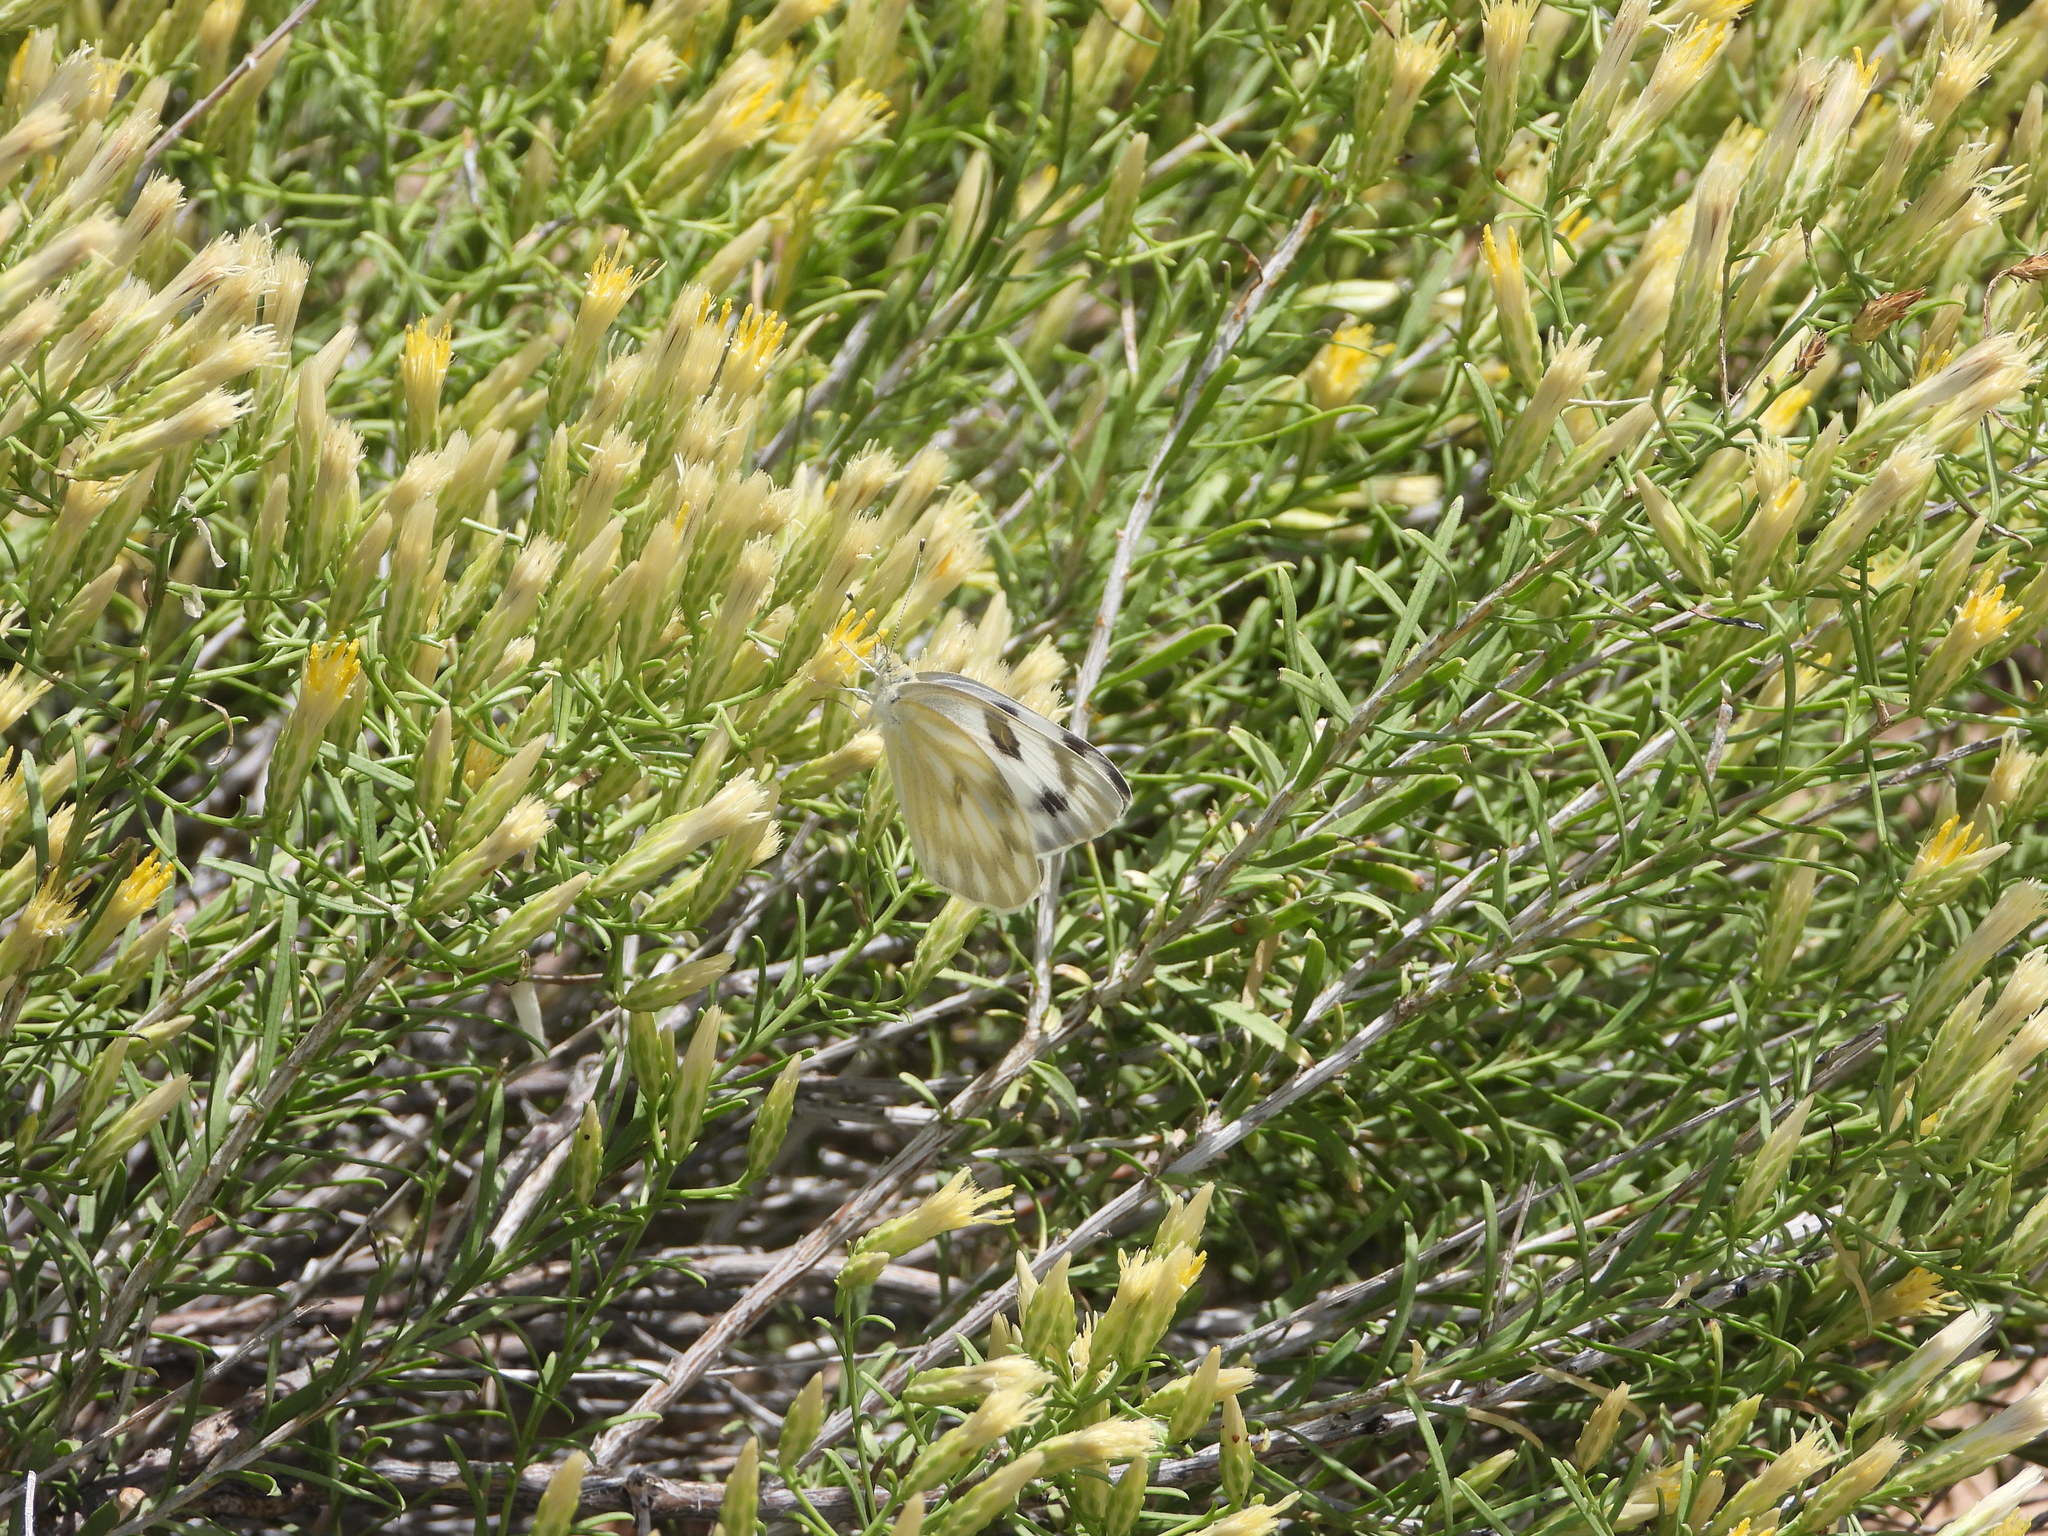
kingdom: Animalia
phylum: Arthropoda
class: Insecta
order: Lepidoptera
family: Pieridae
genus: Pontia
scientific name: Pontia protodice
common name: Checkered white
